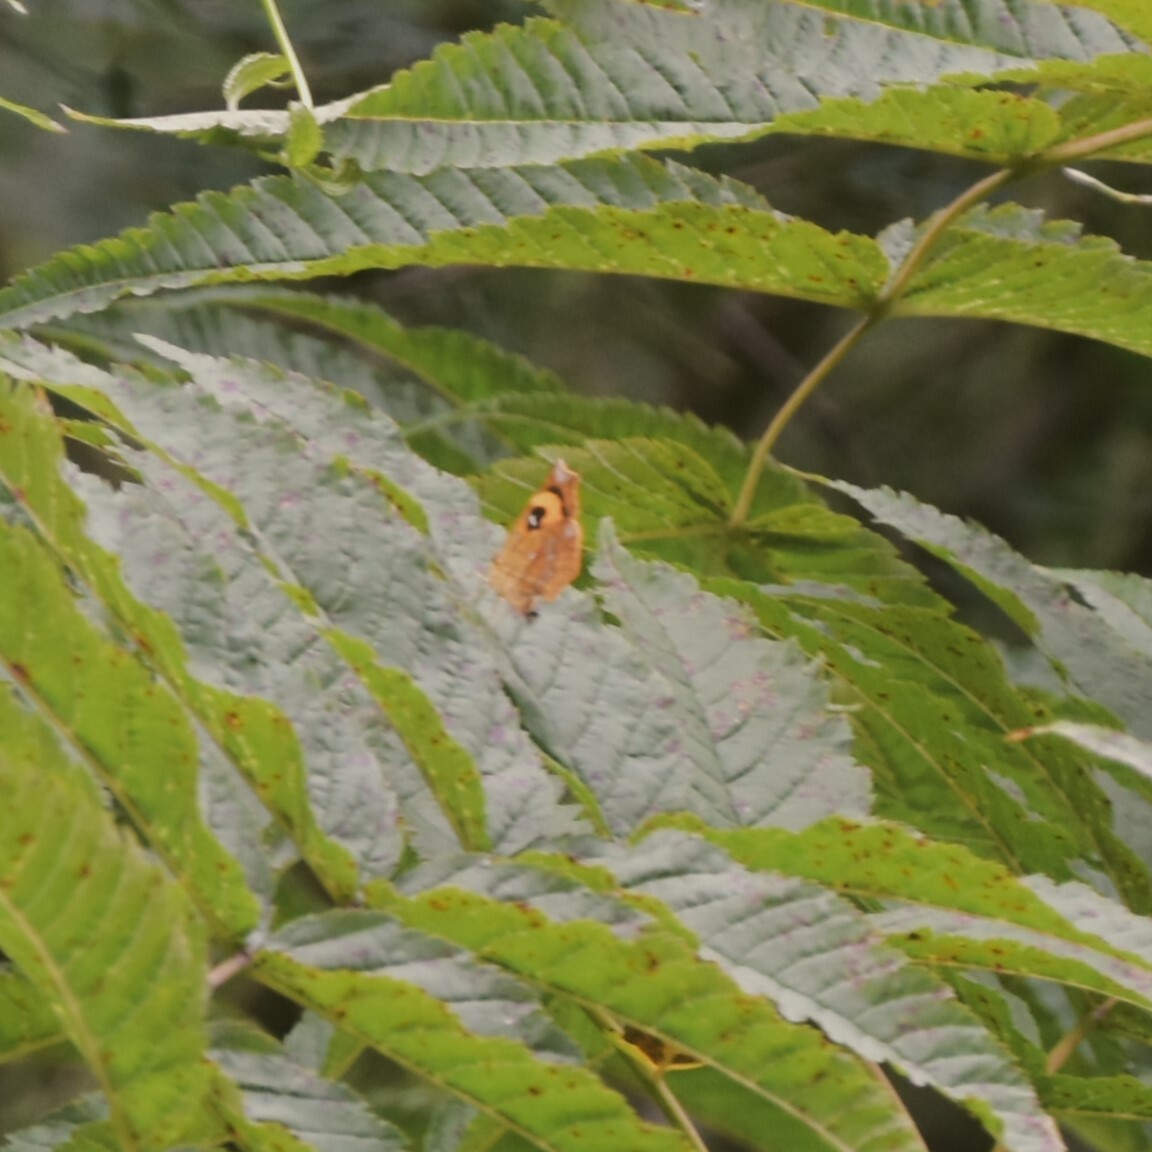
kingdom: Animalia
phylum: Arthropoda
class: Insecta
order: Lepidoptera
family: Callidulidae
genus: Pterodecta
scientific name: Pterodecta anchora
